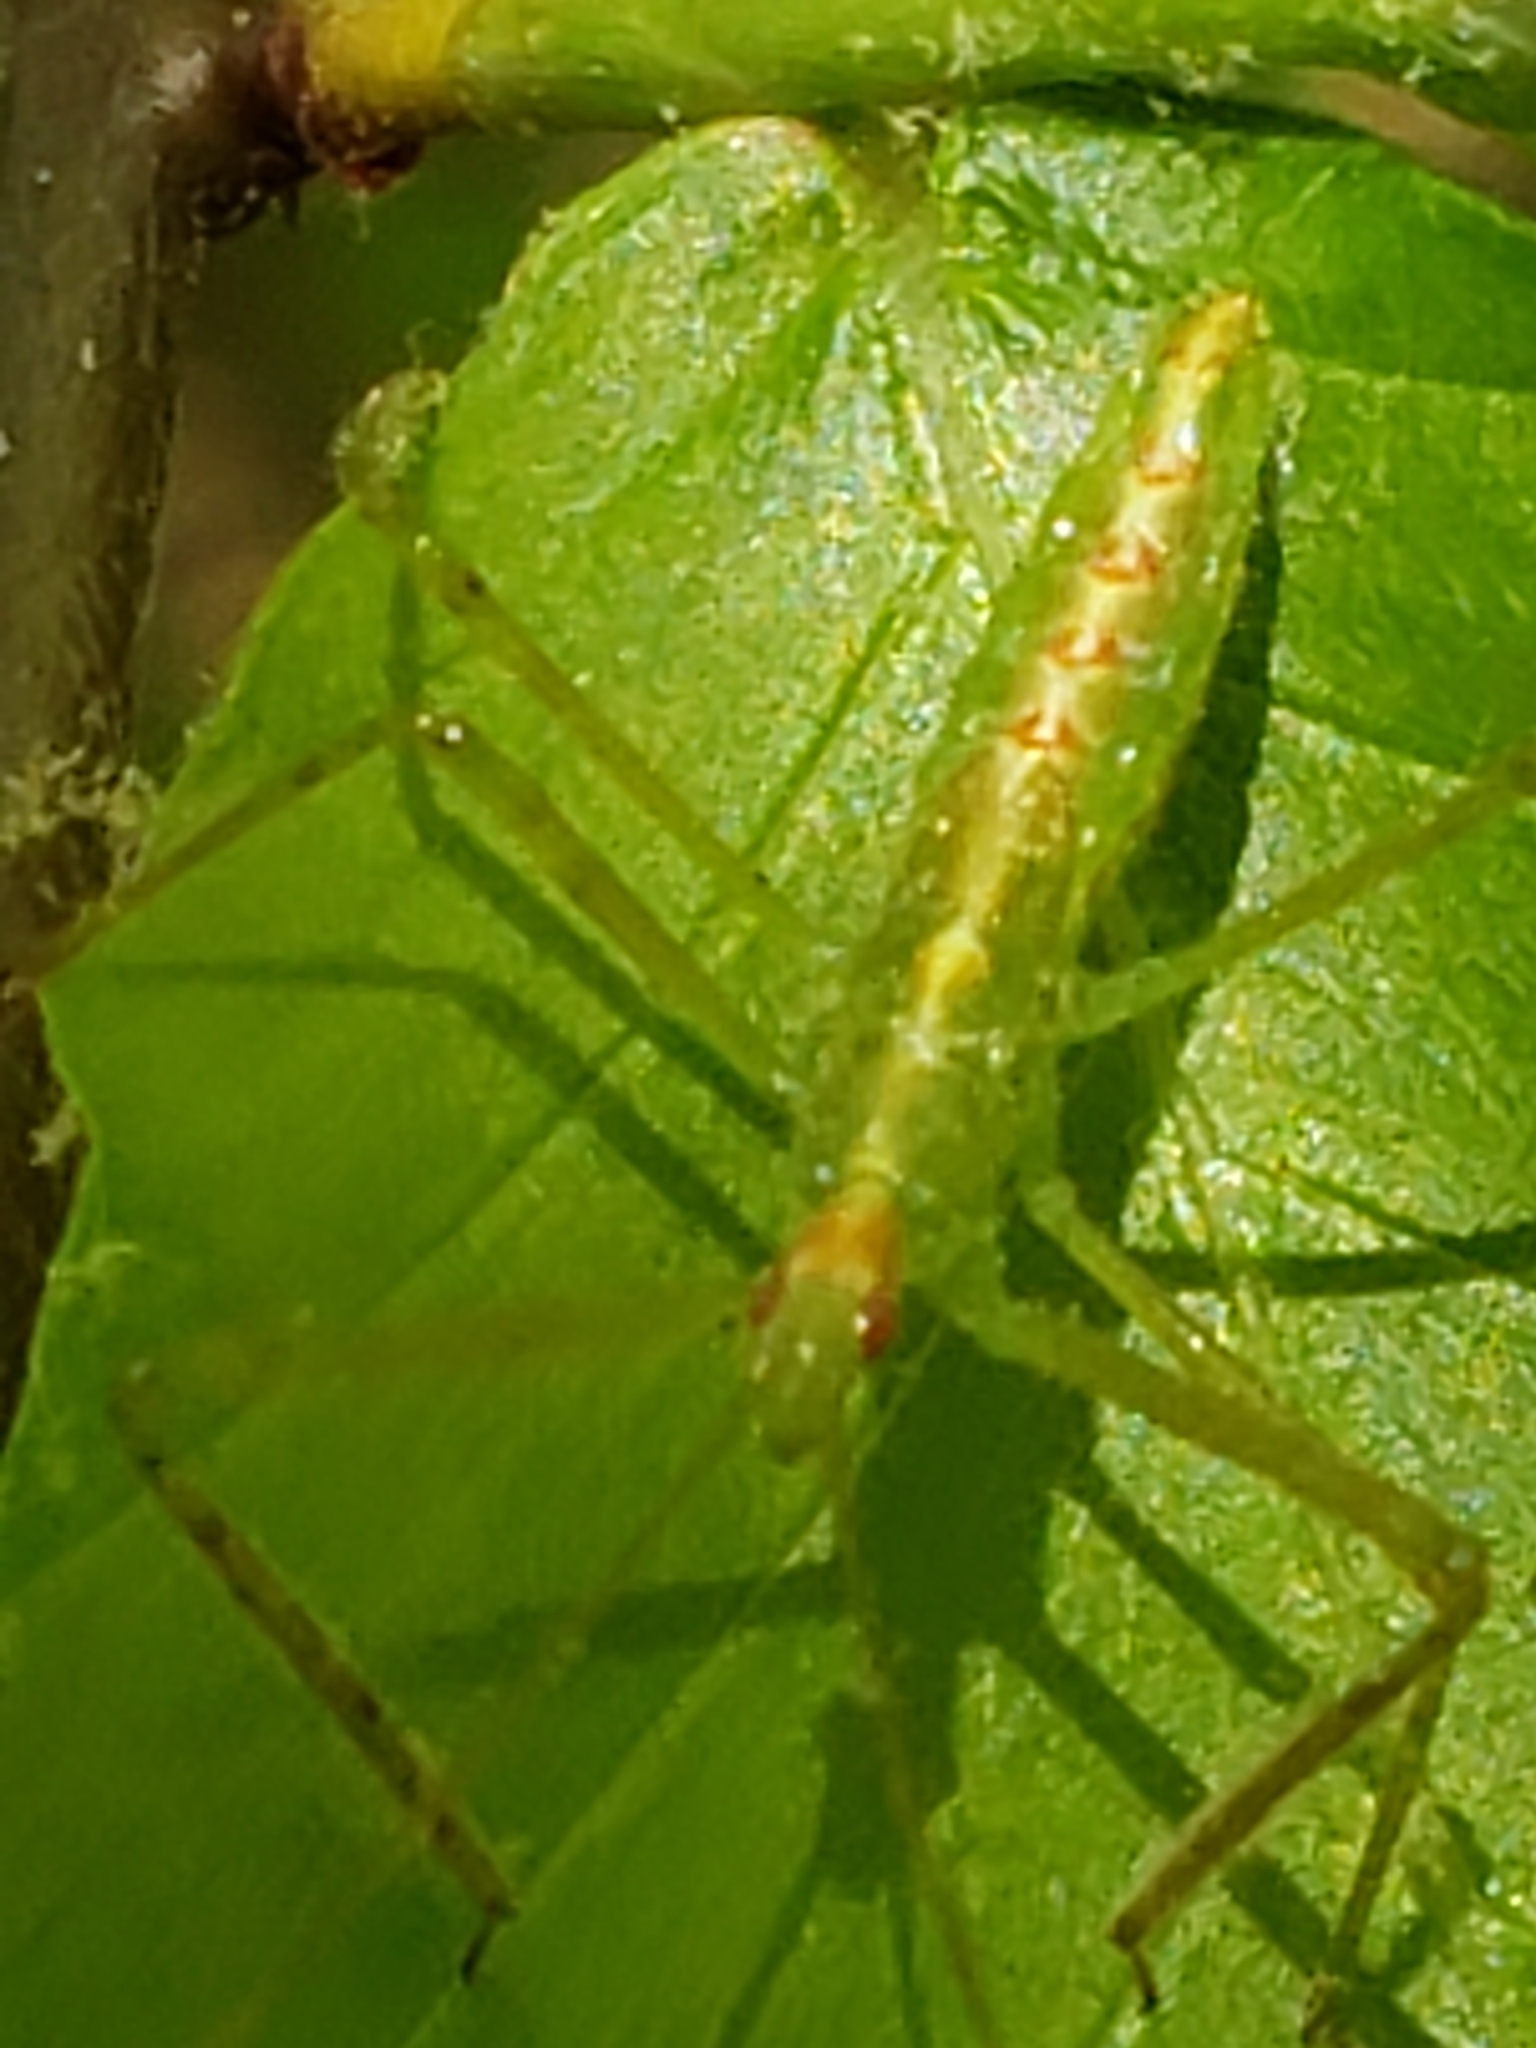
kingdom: Animalia
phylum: Arthropoda
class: Insecta
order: Hemiptera
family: Reduviidae
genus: Zelus
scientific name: Zelus luridus
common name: Pale green assassin bug
